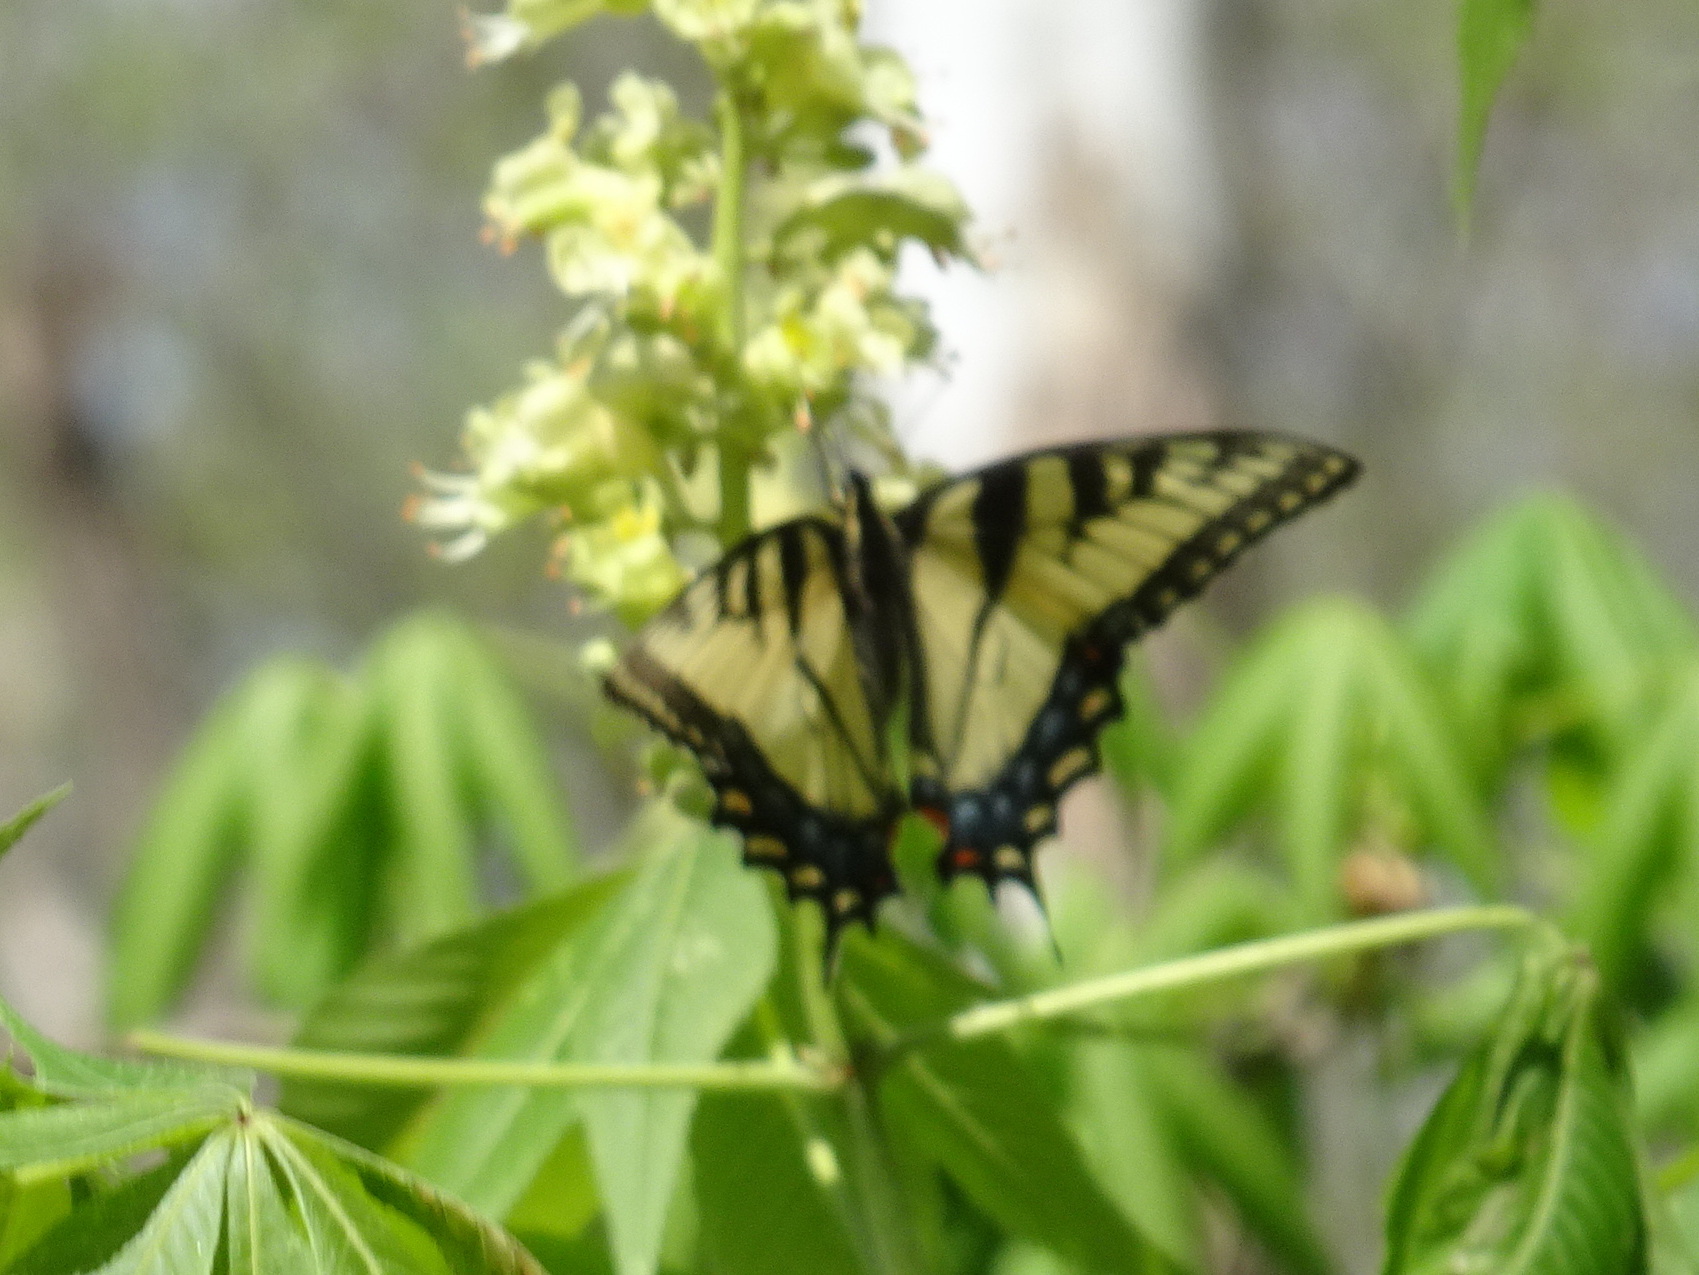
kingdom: Animalia
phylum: Arthropoda
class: Insecta
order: Lepidoptera
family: Papilionidae
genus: Papilio
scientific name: Papilio glaucus
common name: Tiger swallowtail
